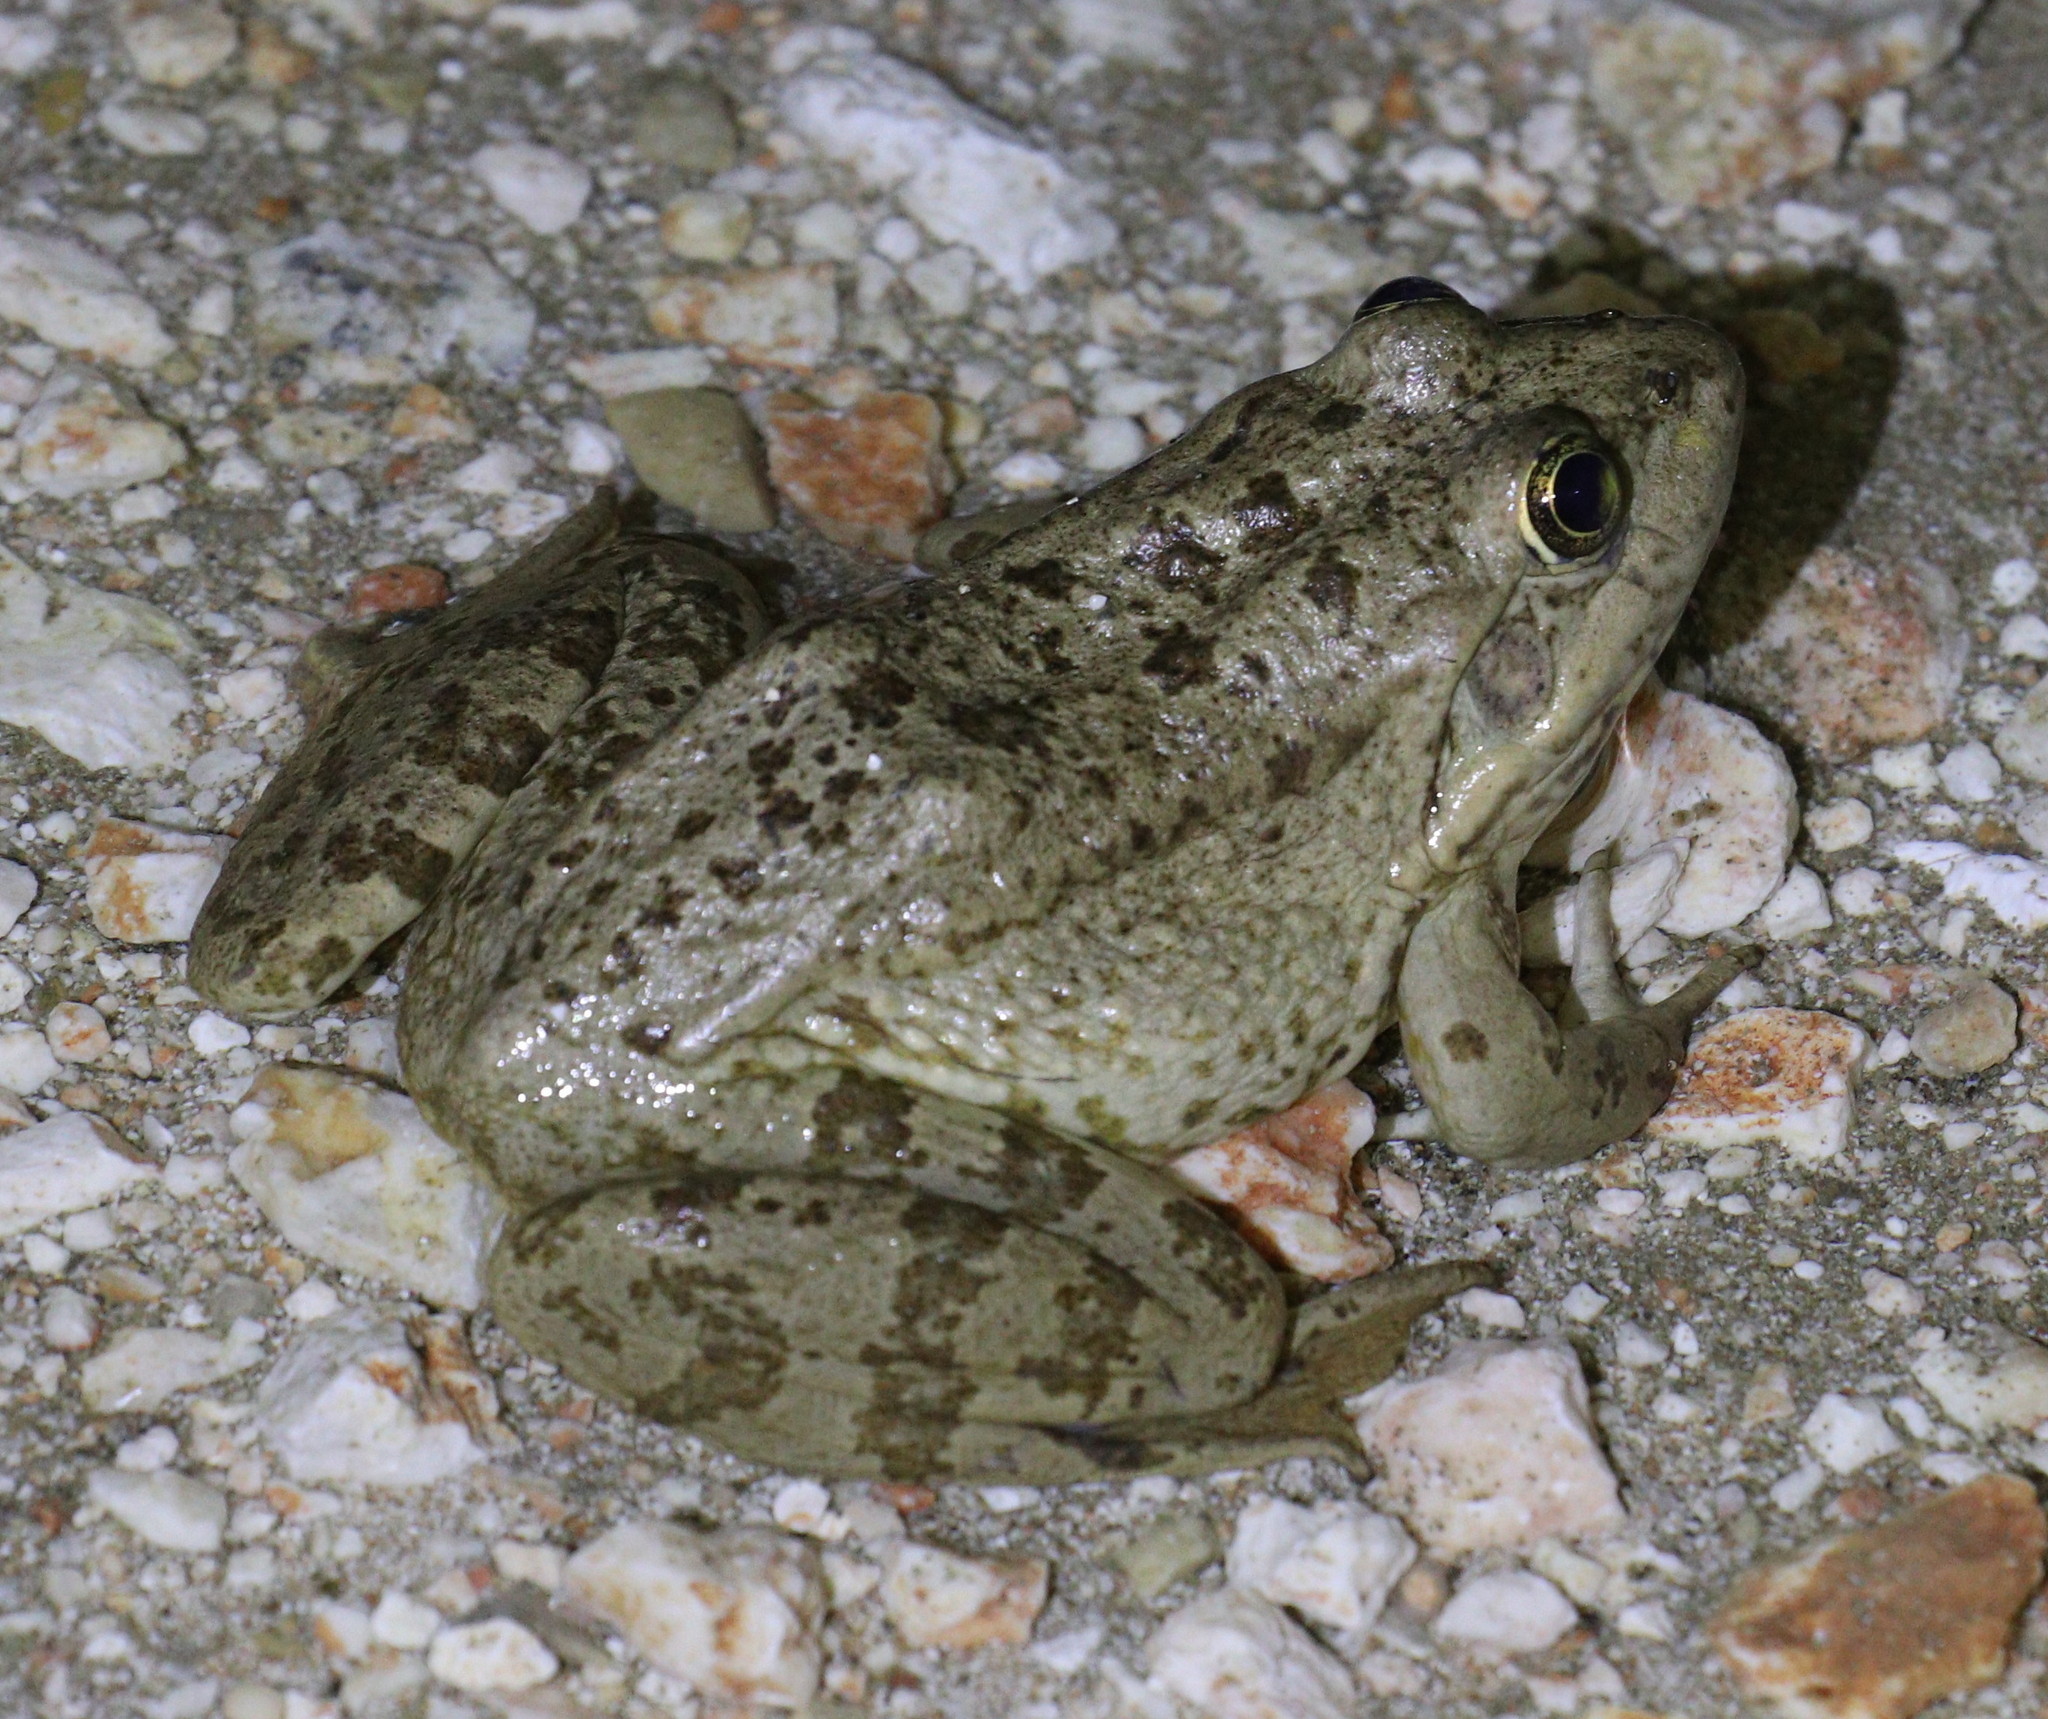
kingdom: Animalia
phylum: Chordata
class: Amphibia
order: Anura
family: Ranidae
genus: Pelophylax
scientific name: Pelophylax ridibundus
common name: Marsh frog
